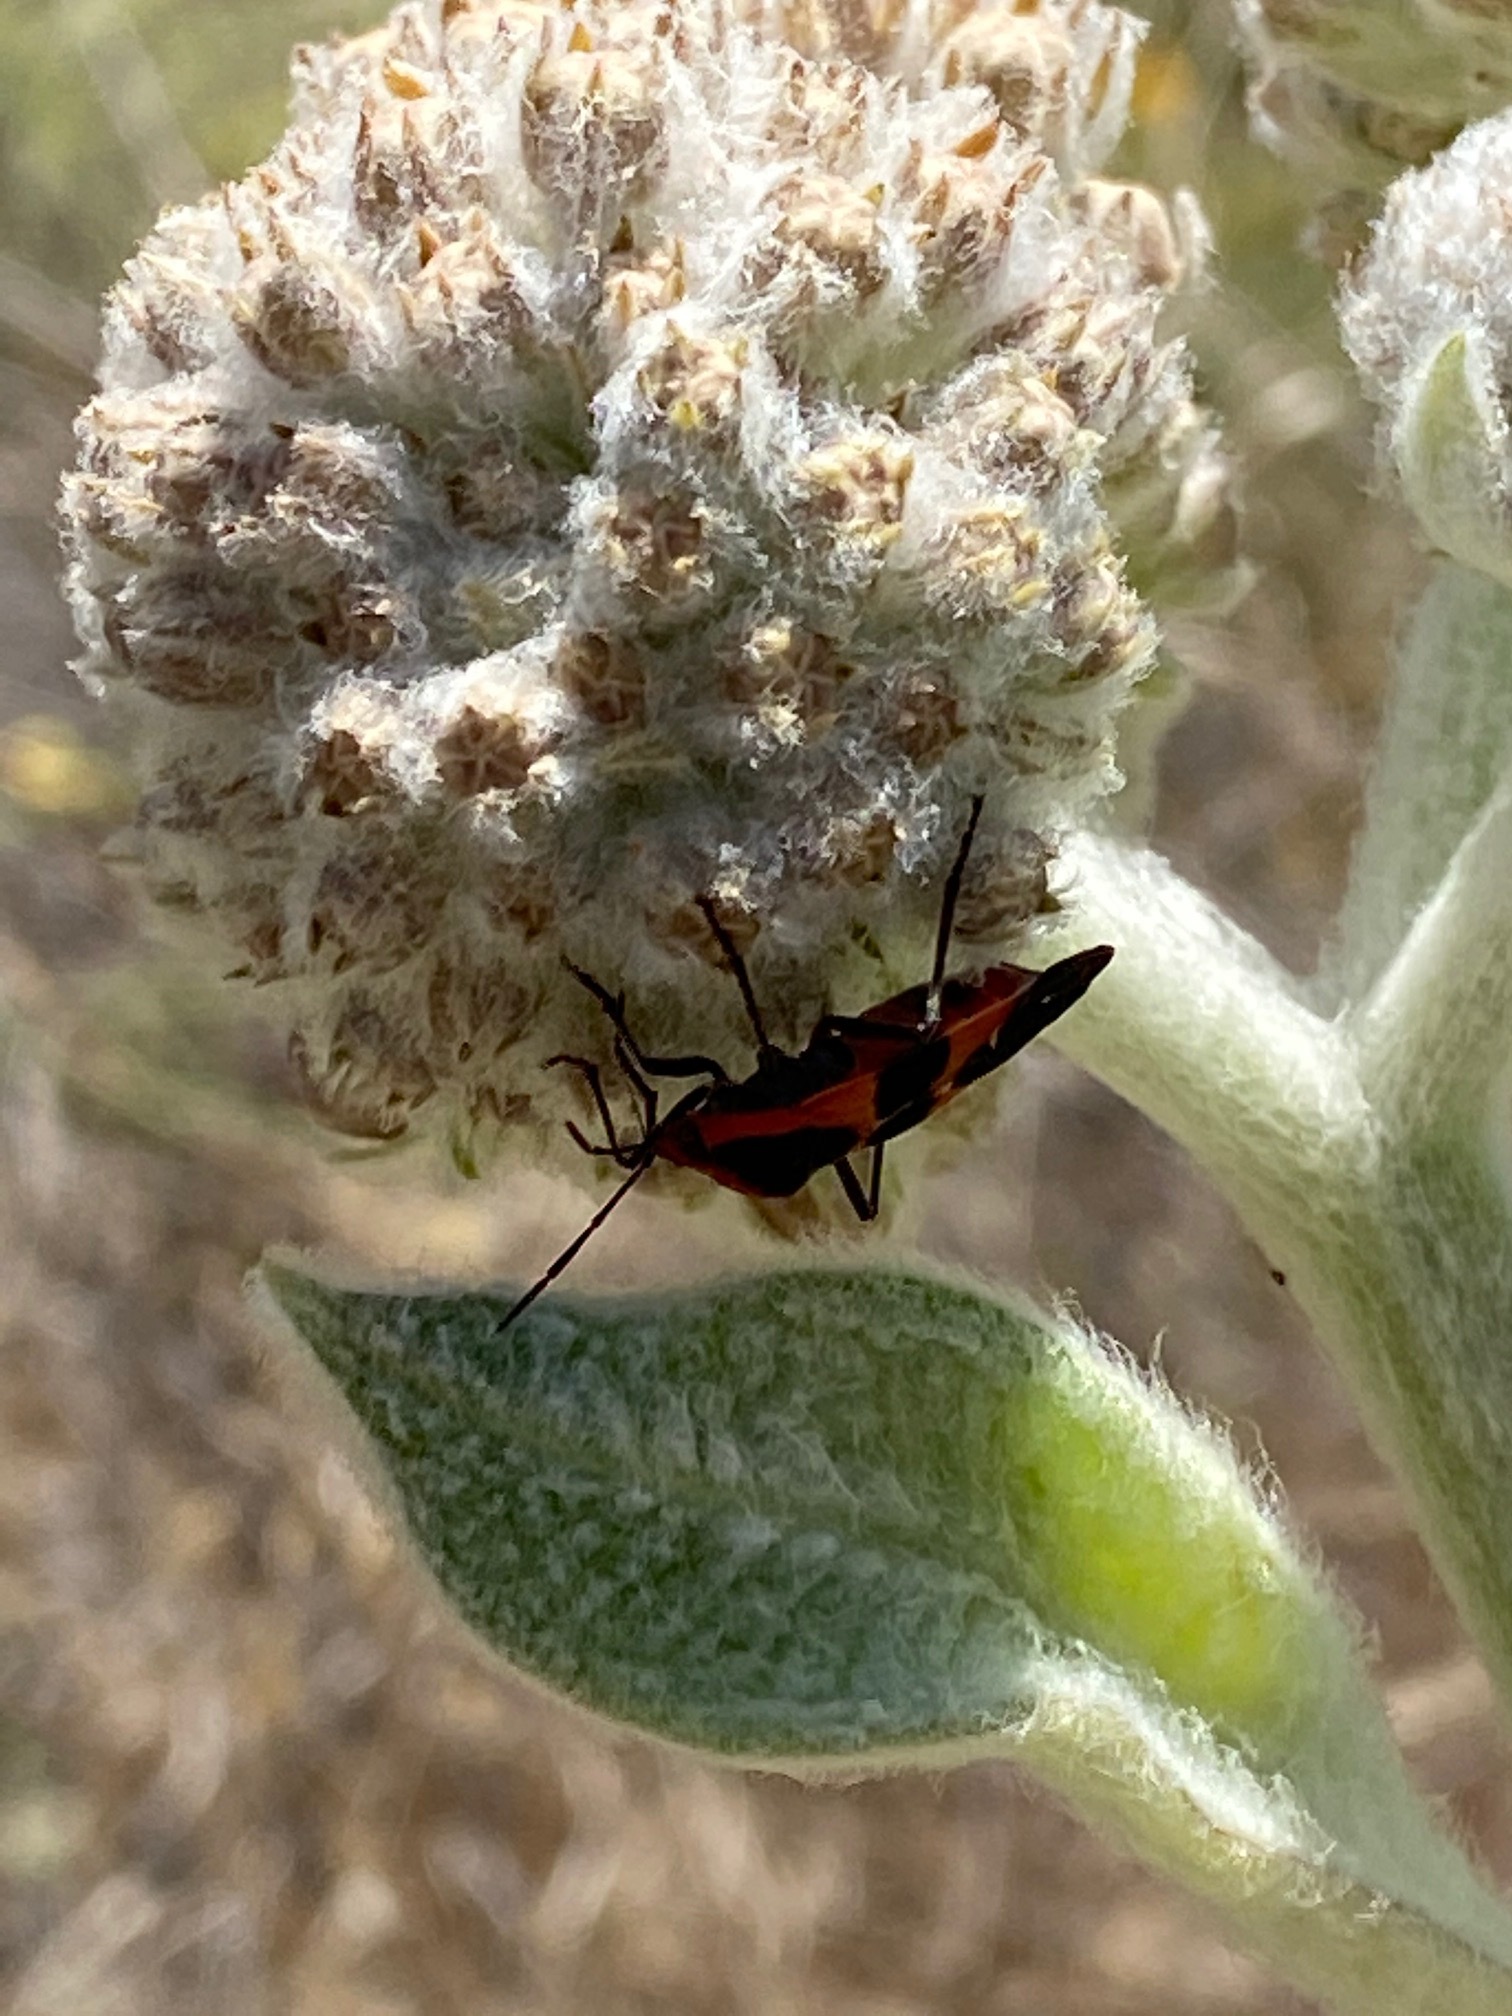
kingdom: Animalia
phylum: Arthropoda
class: Insecta
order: Hemiptera
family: Lygaeidae
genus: Oncopeltus
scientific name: Oncopeltus fasciatus
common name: Large milkweed bug
